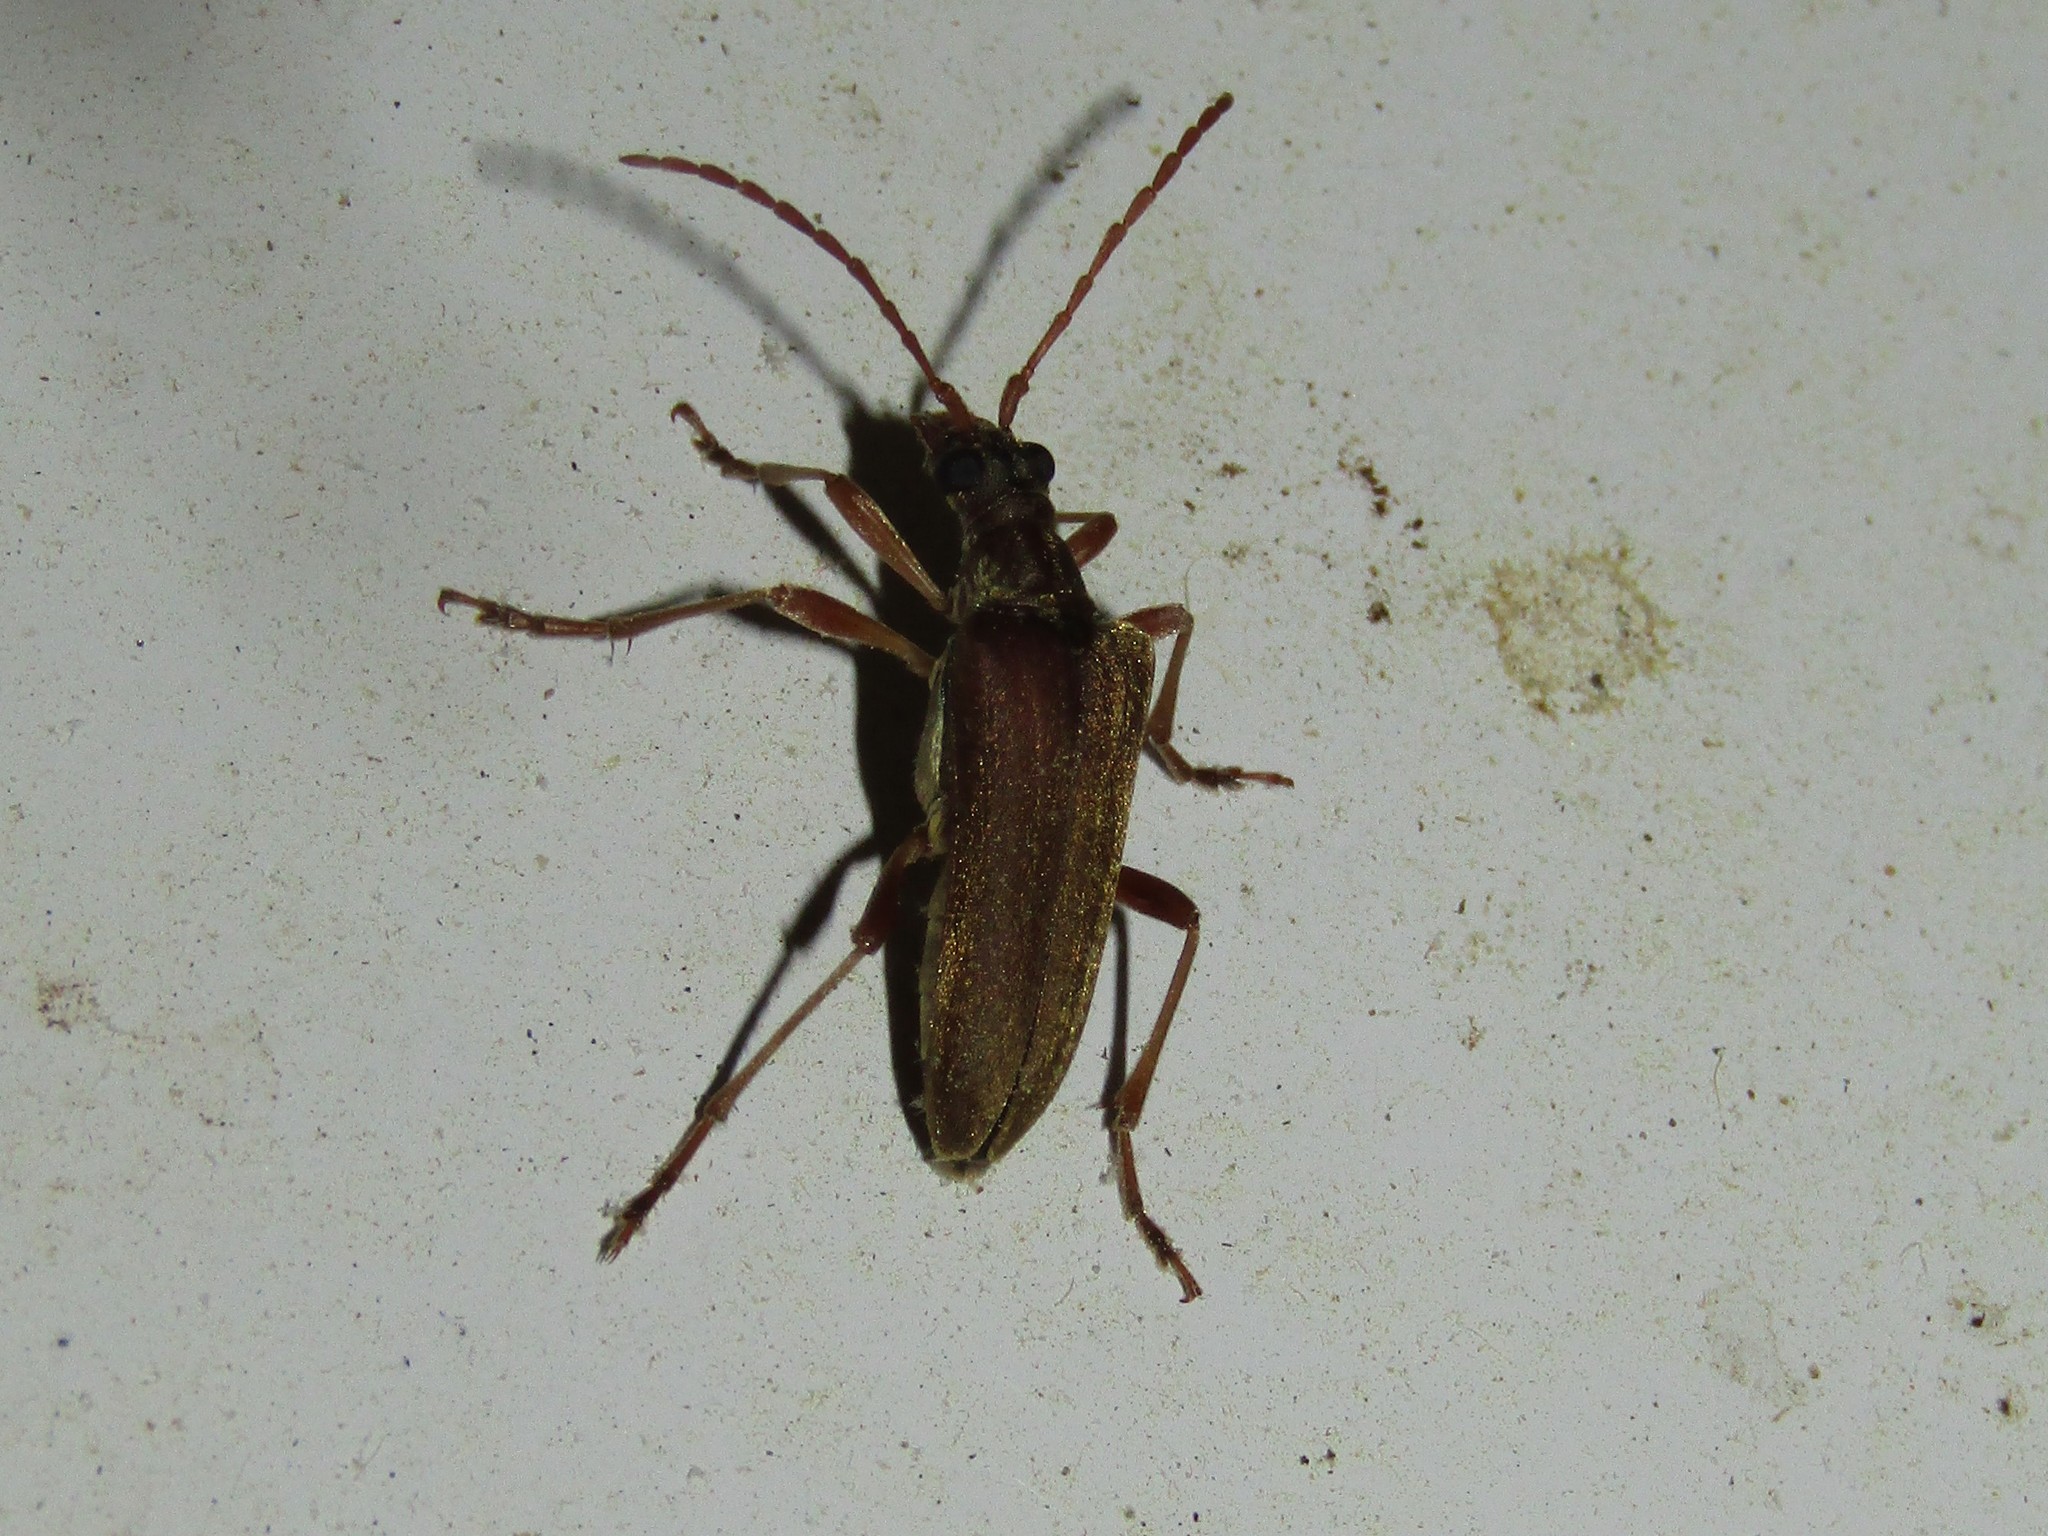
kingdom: Animalia
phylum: Arthropoda
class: Insecta
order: Coleoptera
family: Cerambycidae
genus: Stenocorus
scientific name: Stenocorus cinnamopterus
